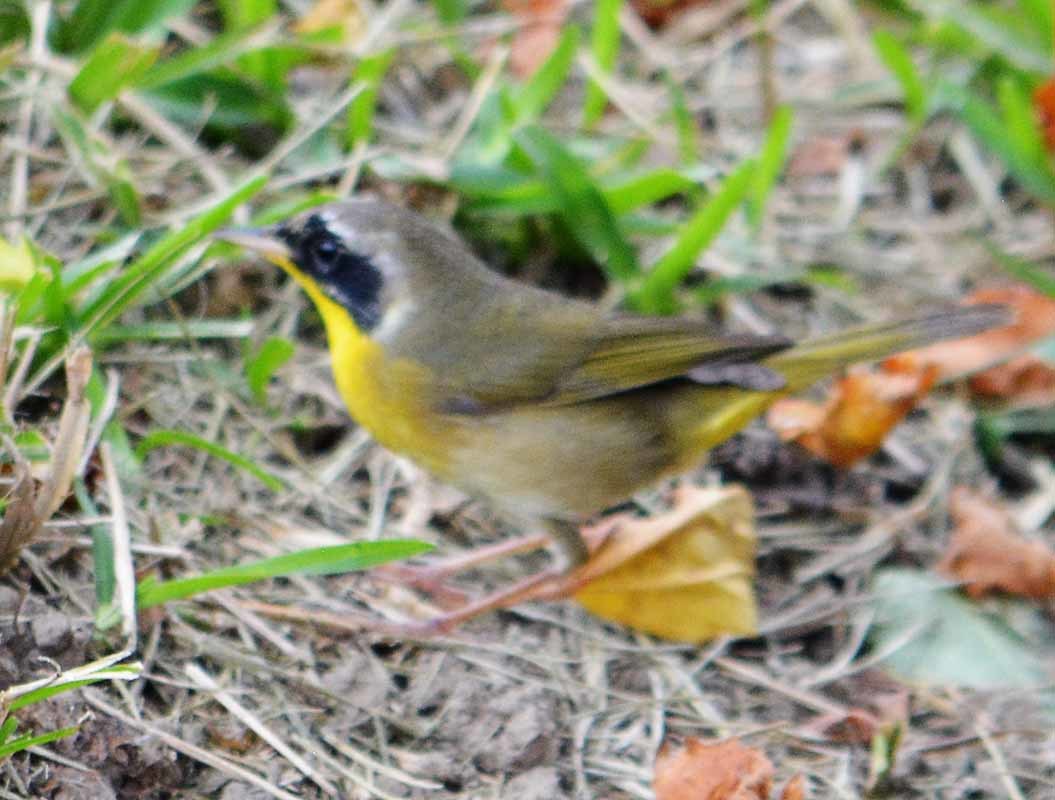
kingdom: Animalia
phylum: Chordata
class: Aves
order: Passeriformes
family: Parulidae
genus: Geothlypis
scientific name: Geothlypis trichas
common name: Common yellowthroat
